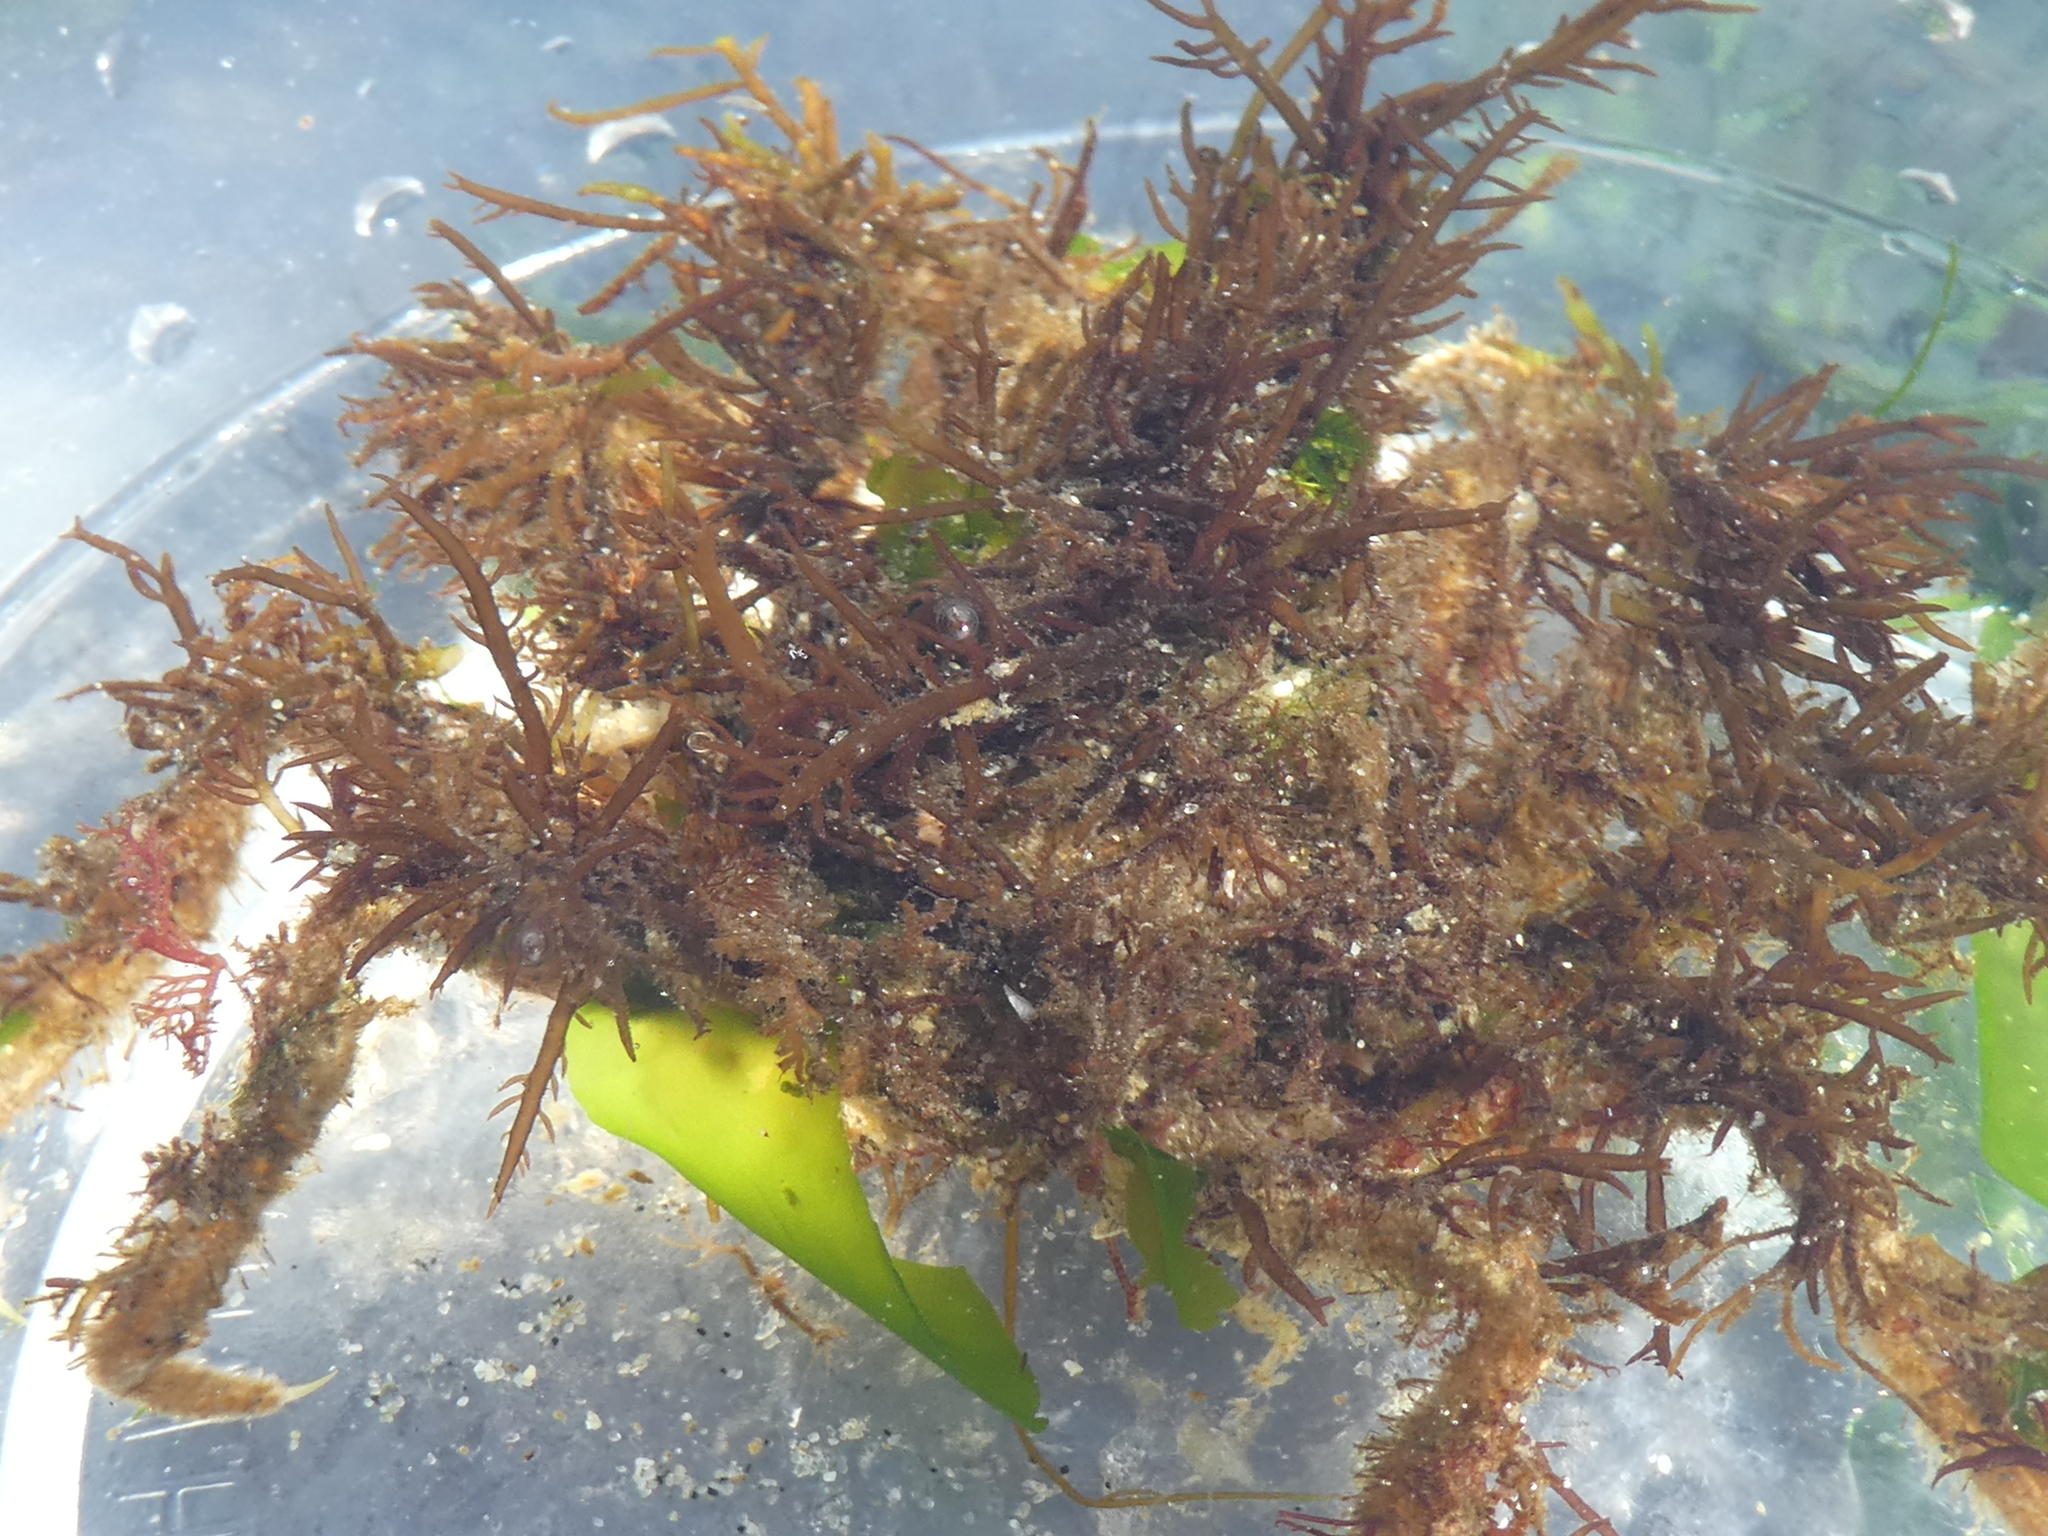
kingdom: Animalia
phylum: Arthropoda
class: Malacostraca
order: Decapoda
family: Oregoniidae
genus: Oregonia
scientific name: Oregonia gracilis
